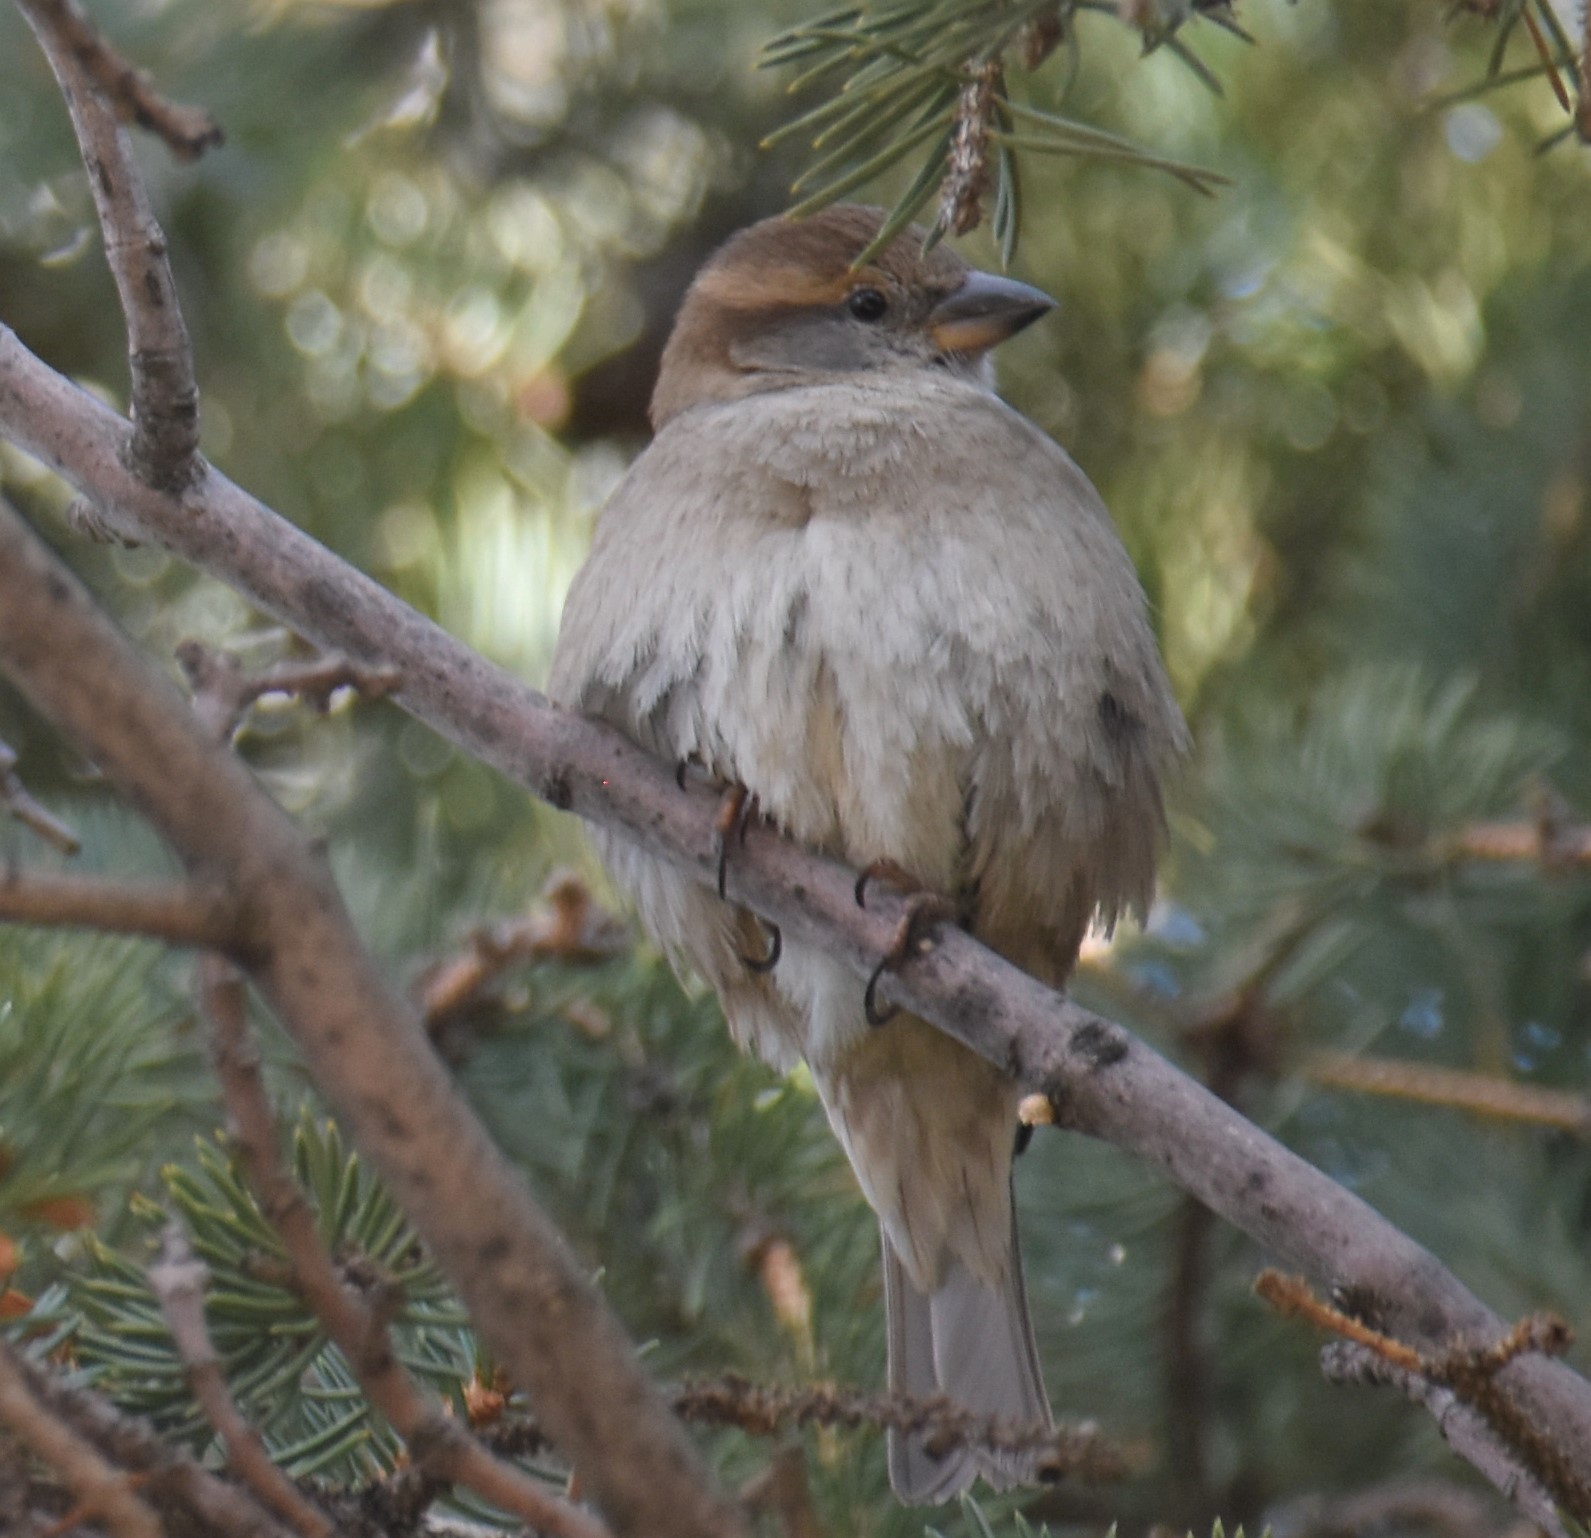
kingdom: Animalia
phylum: Chordata
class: Aves
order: Passeriformes
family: Passeridae
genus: Passer
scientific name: Passer domesticus
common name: House sparrow
